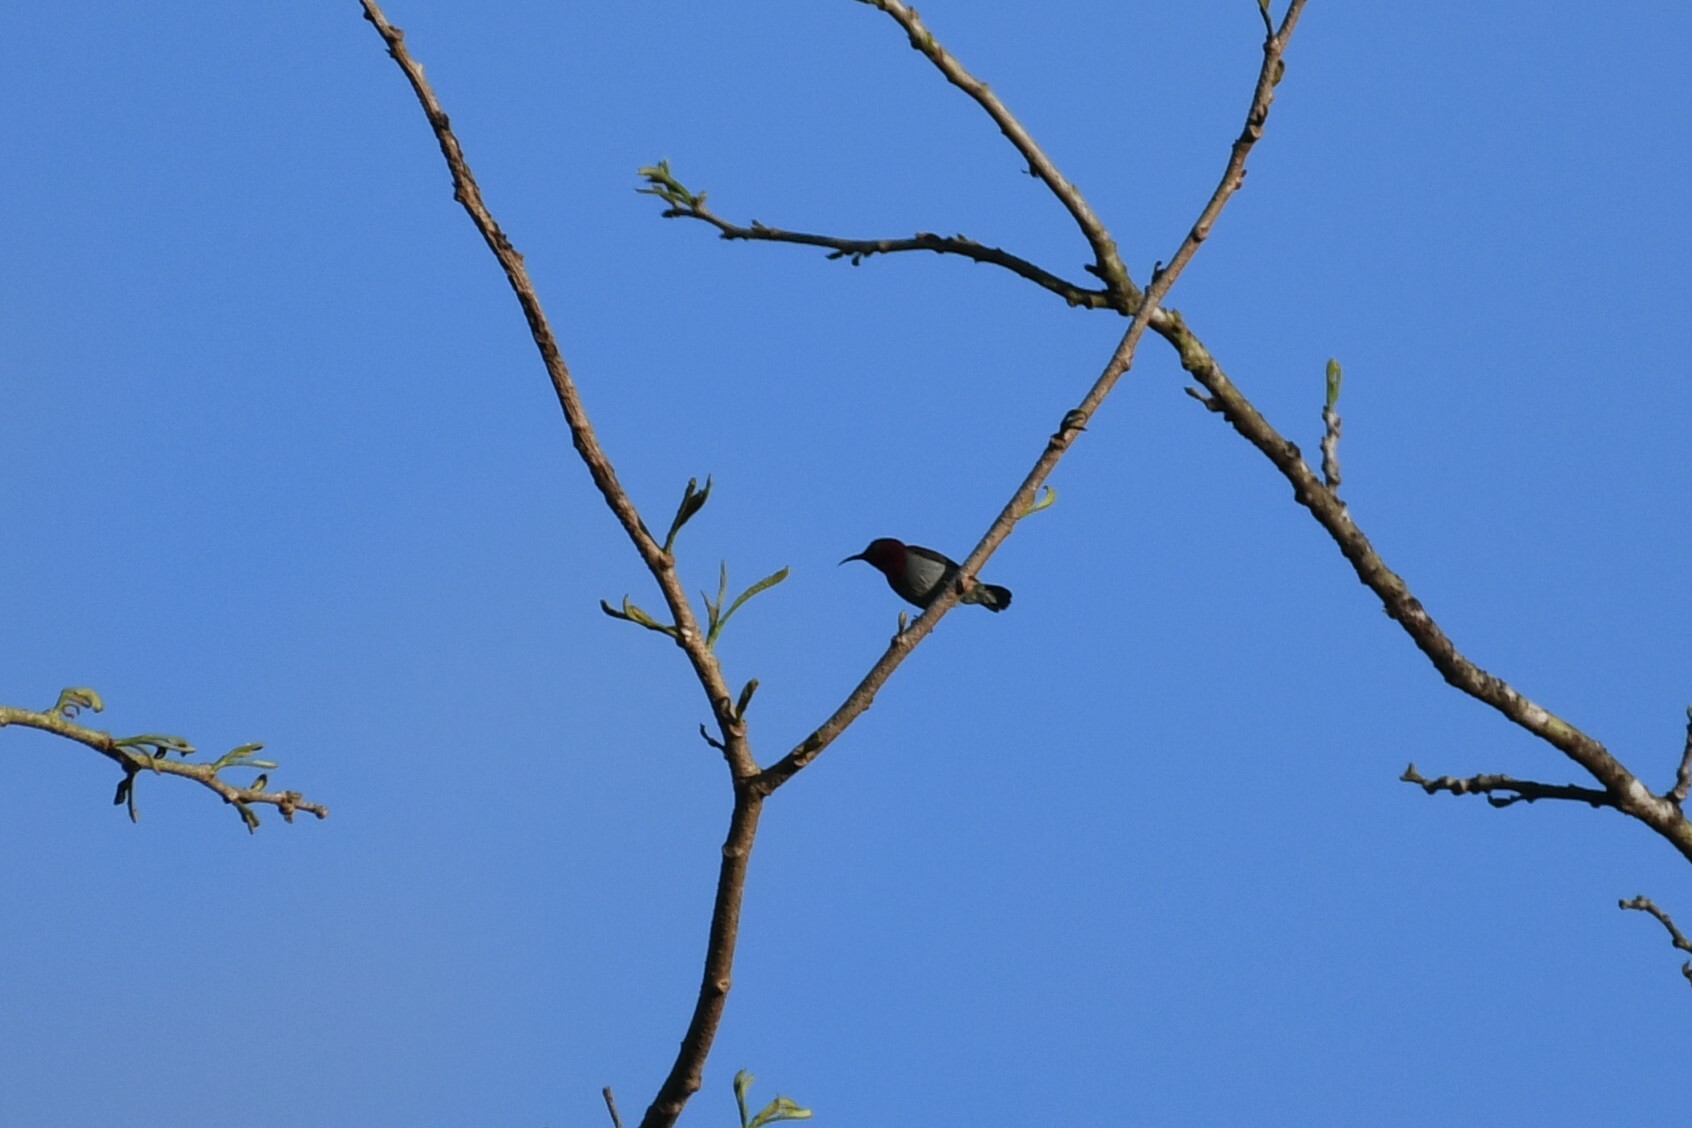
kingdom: Animalia
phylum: Chordata
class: Aves
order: Passeriformes
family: Nectariniidae
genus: Aethopyga
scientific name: Aethopyga siparaja
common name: Crimson sunbird
